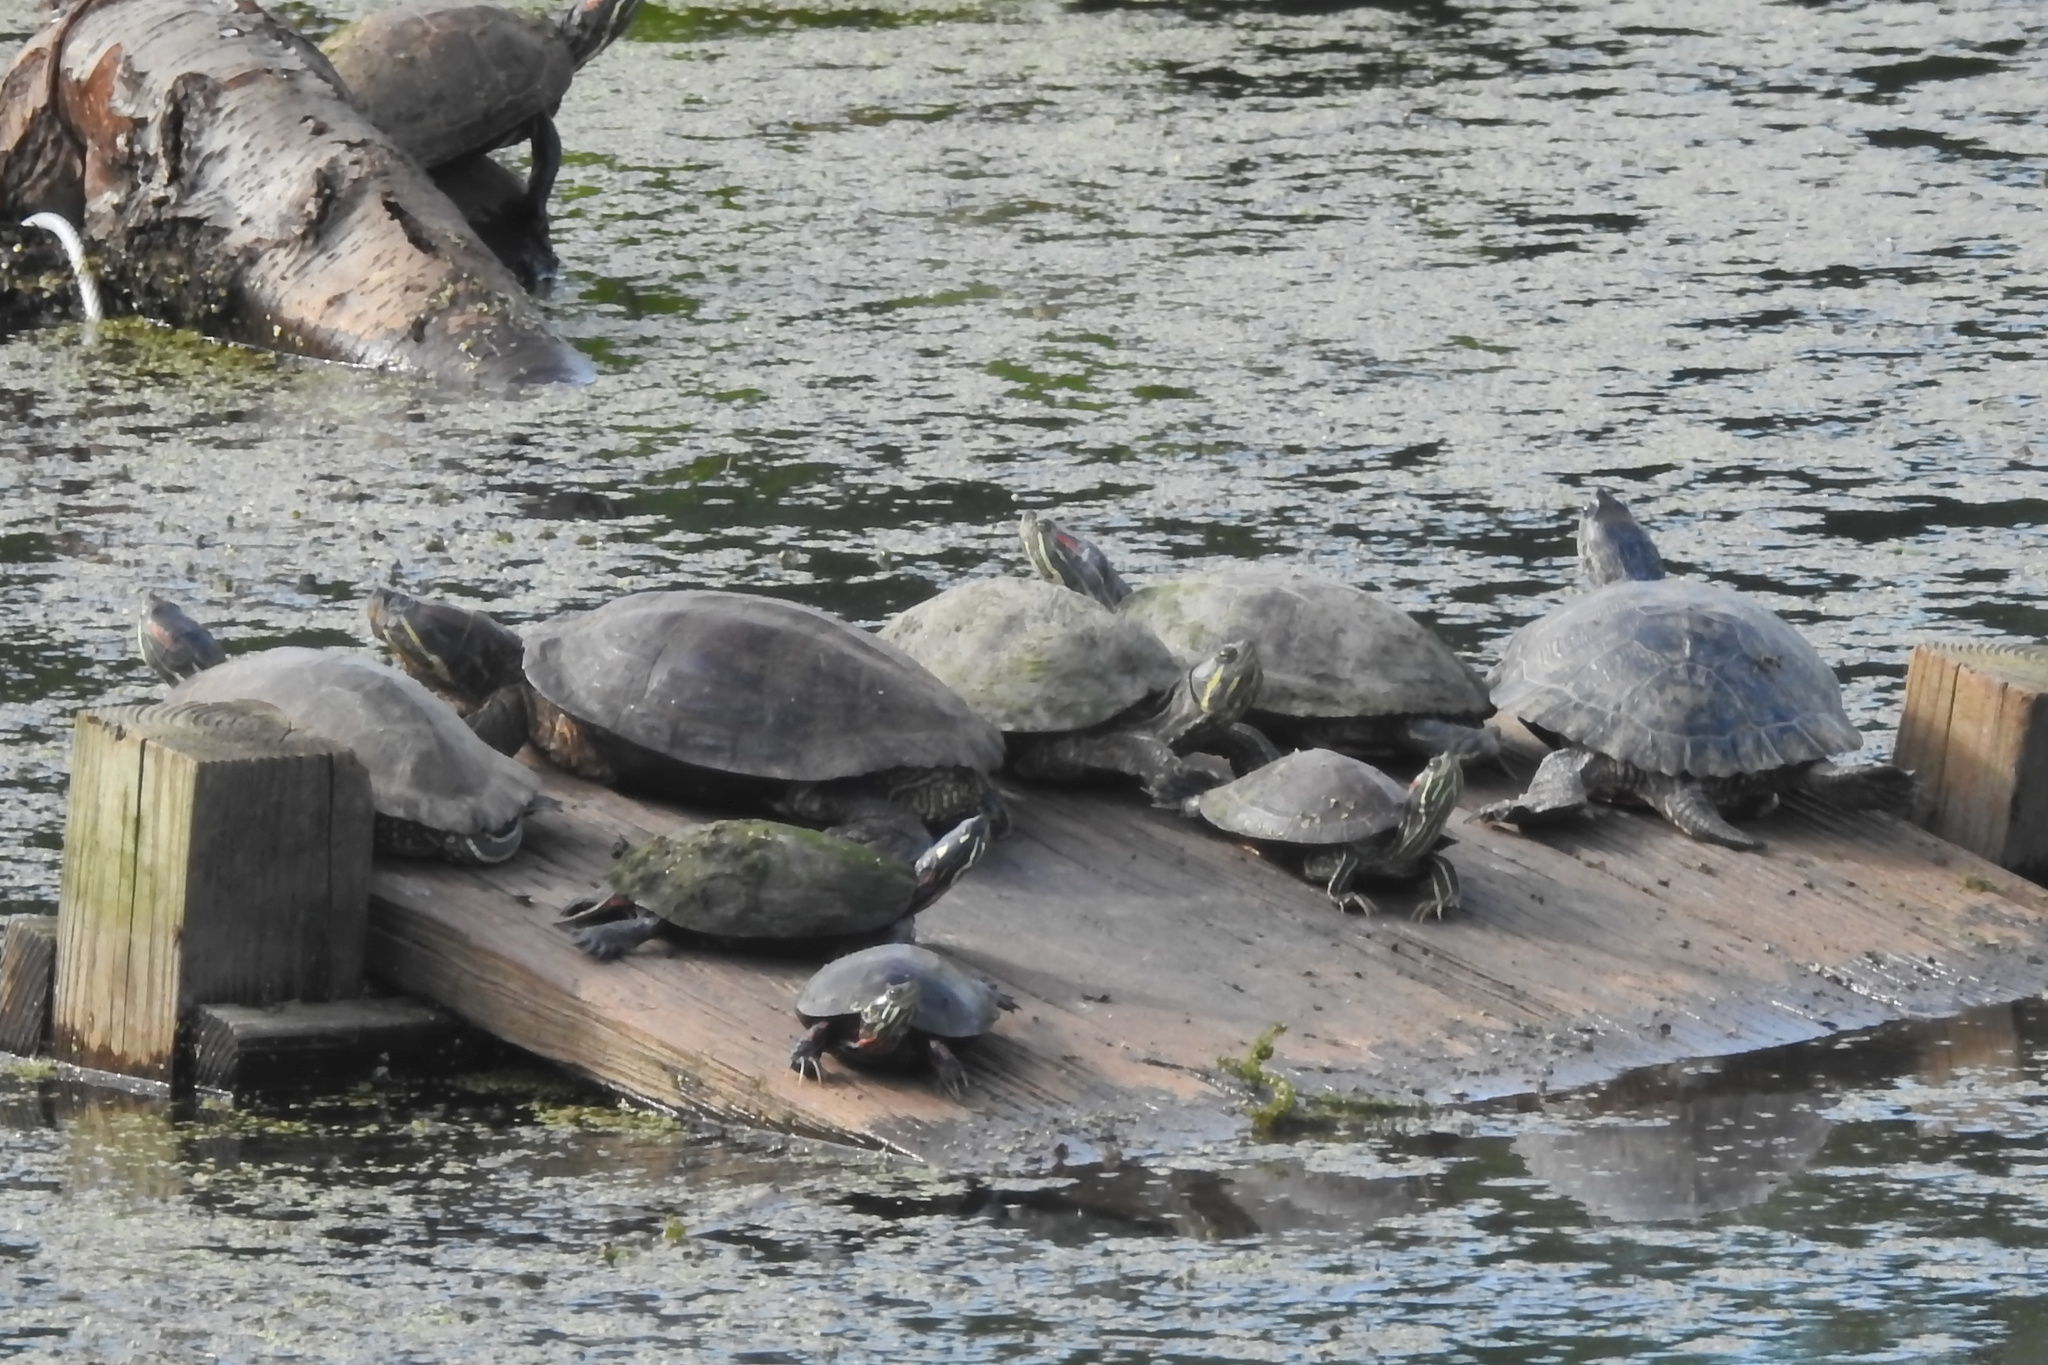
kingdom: Animalia
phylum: Chordata
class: Testudines
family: Emydidae
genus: Trachemys
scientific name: Trachemys scripta
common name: Slider
